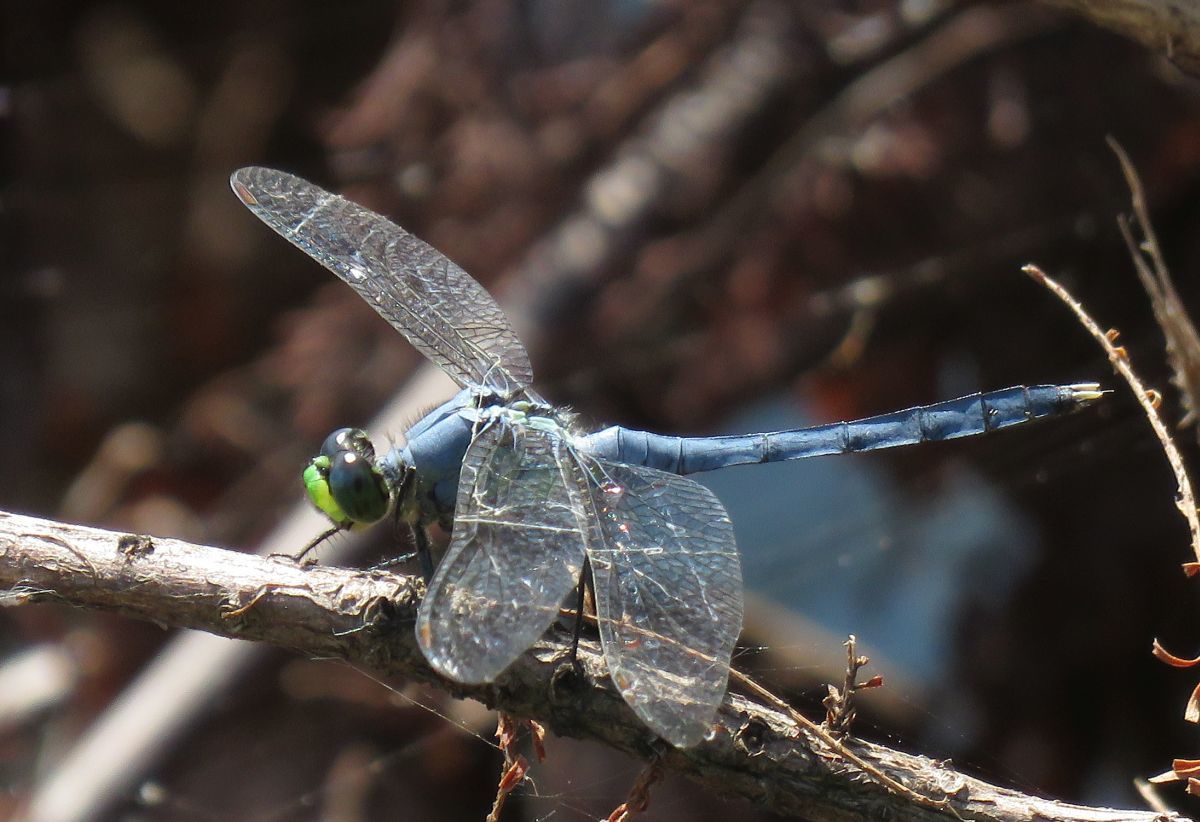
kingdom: Animalia
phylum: Arthropoda
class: Insecta
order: Odonata
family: Libellulidae
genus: Erythemis
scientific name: Erythemis simplicicollis
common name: Eastern pondhawk
